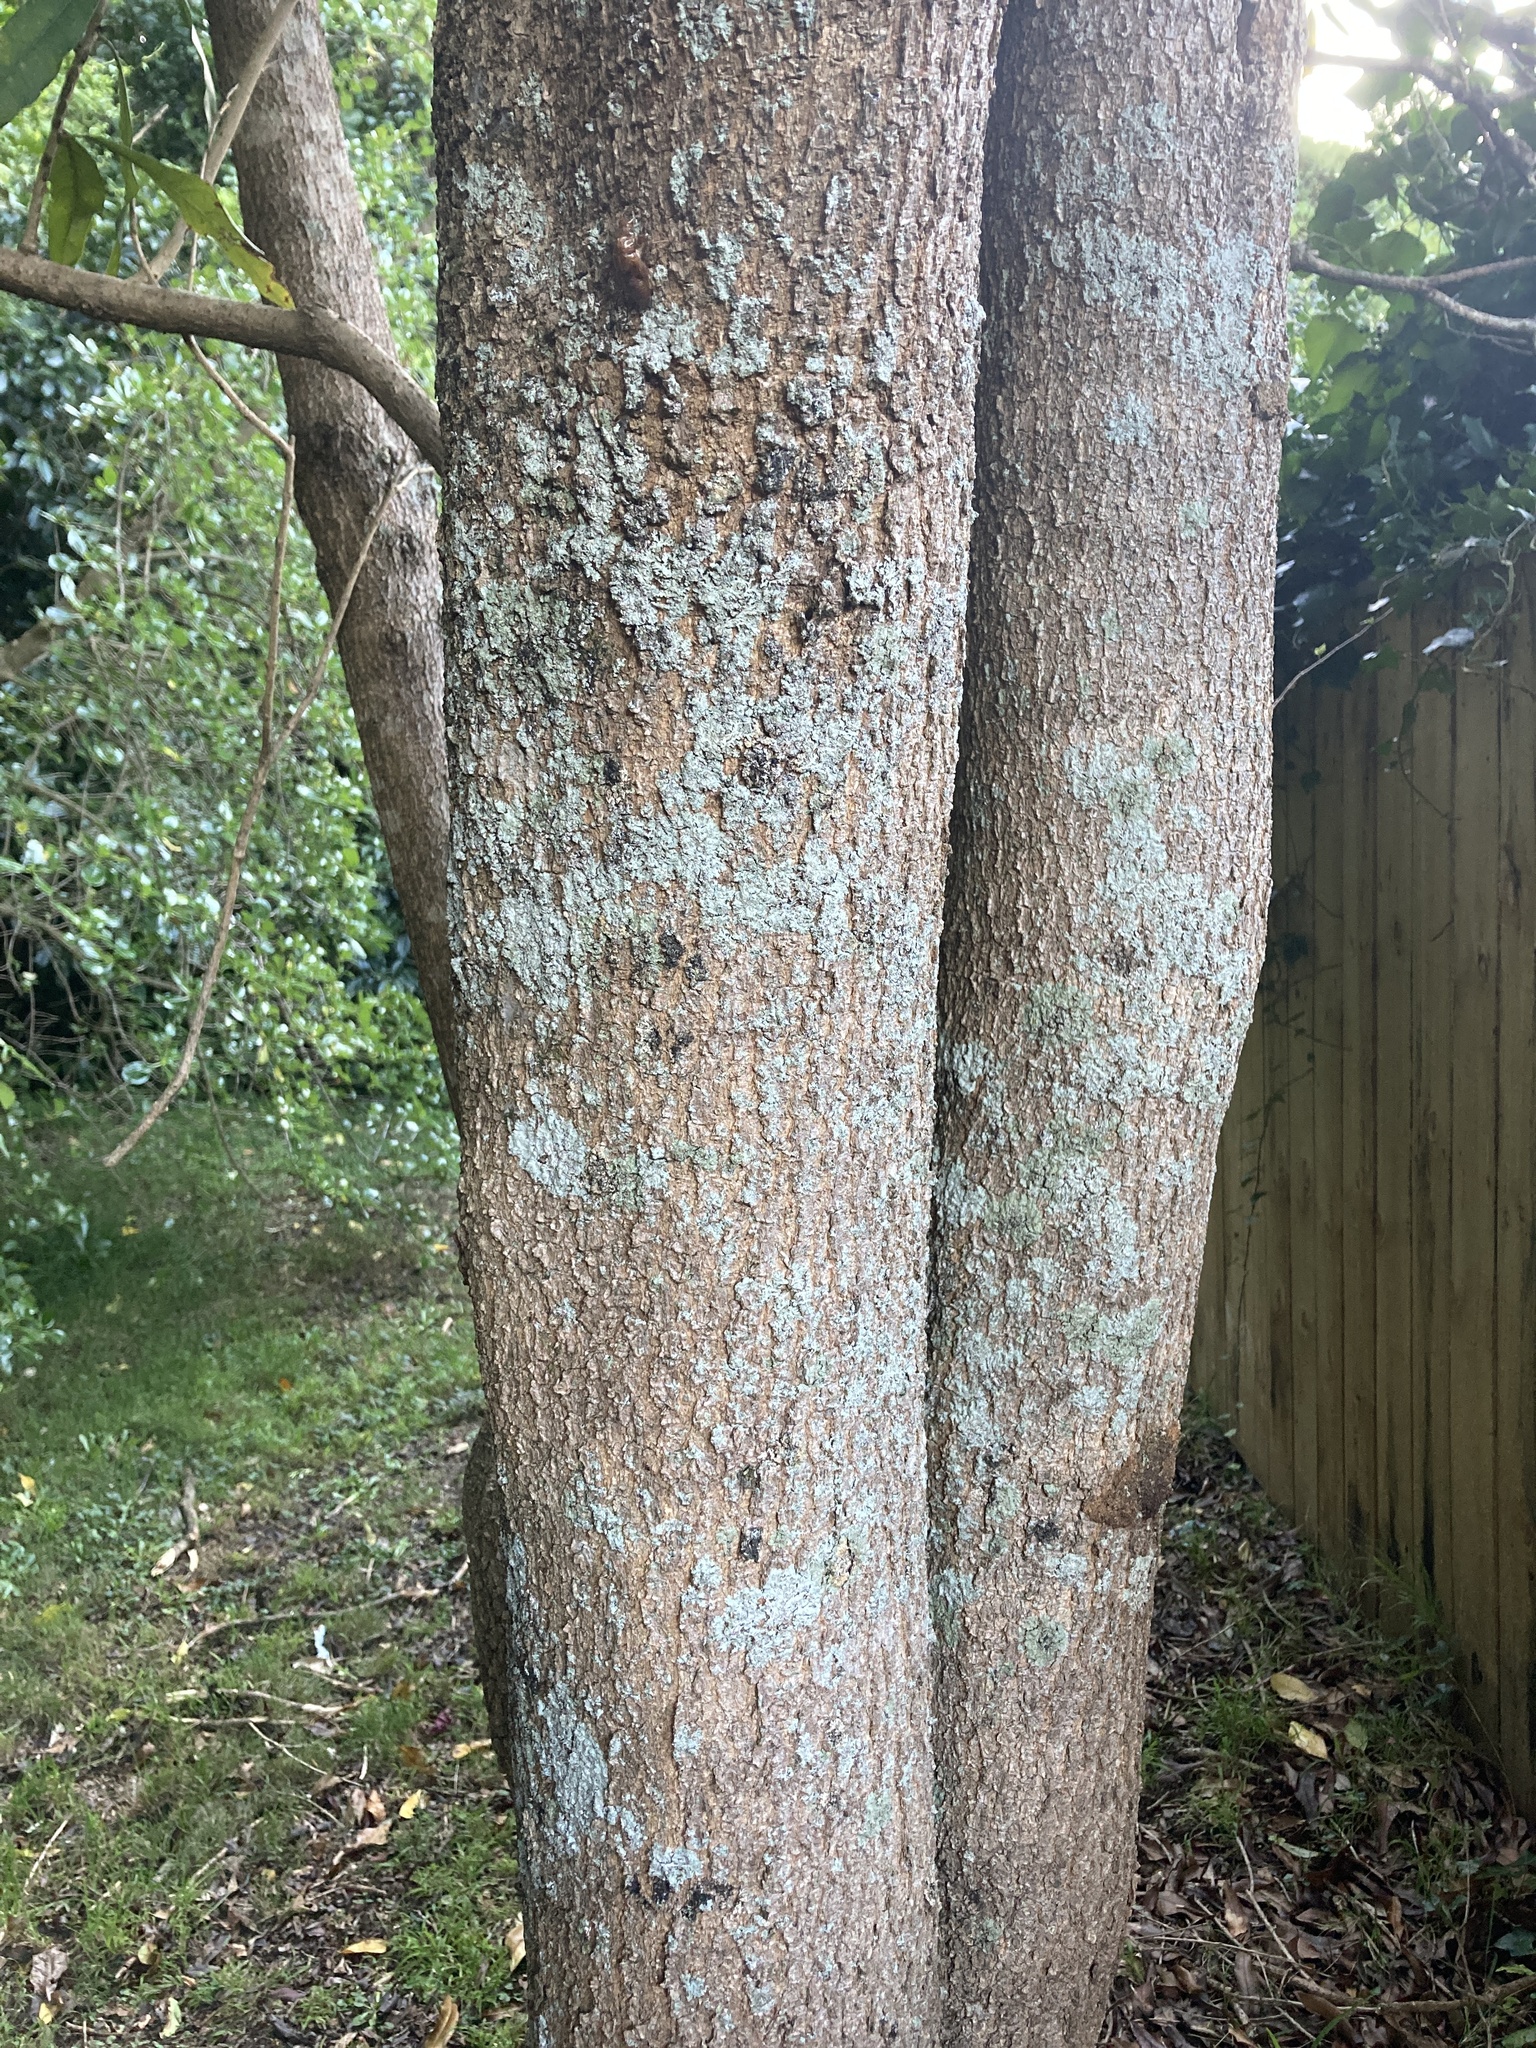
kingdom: Plantae
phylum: Tracheophyta
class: Magnoliopsida
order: Lamiales
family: Oleaceae
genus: Nestegis
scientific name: Nestegis cunninghamii
